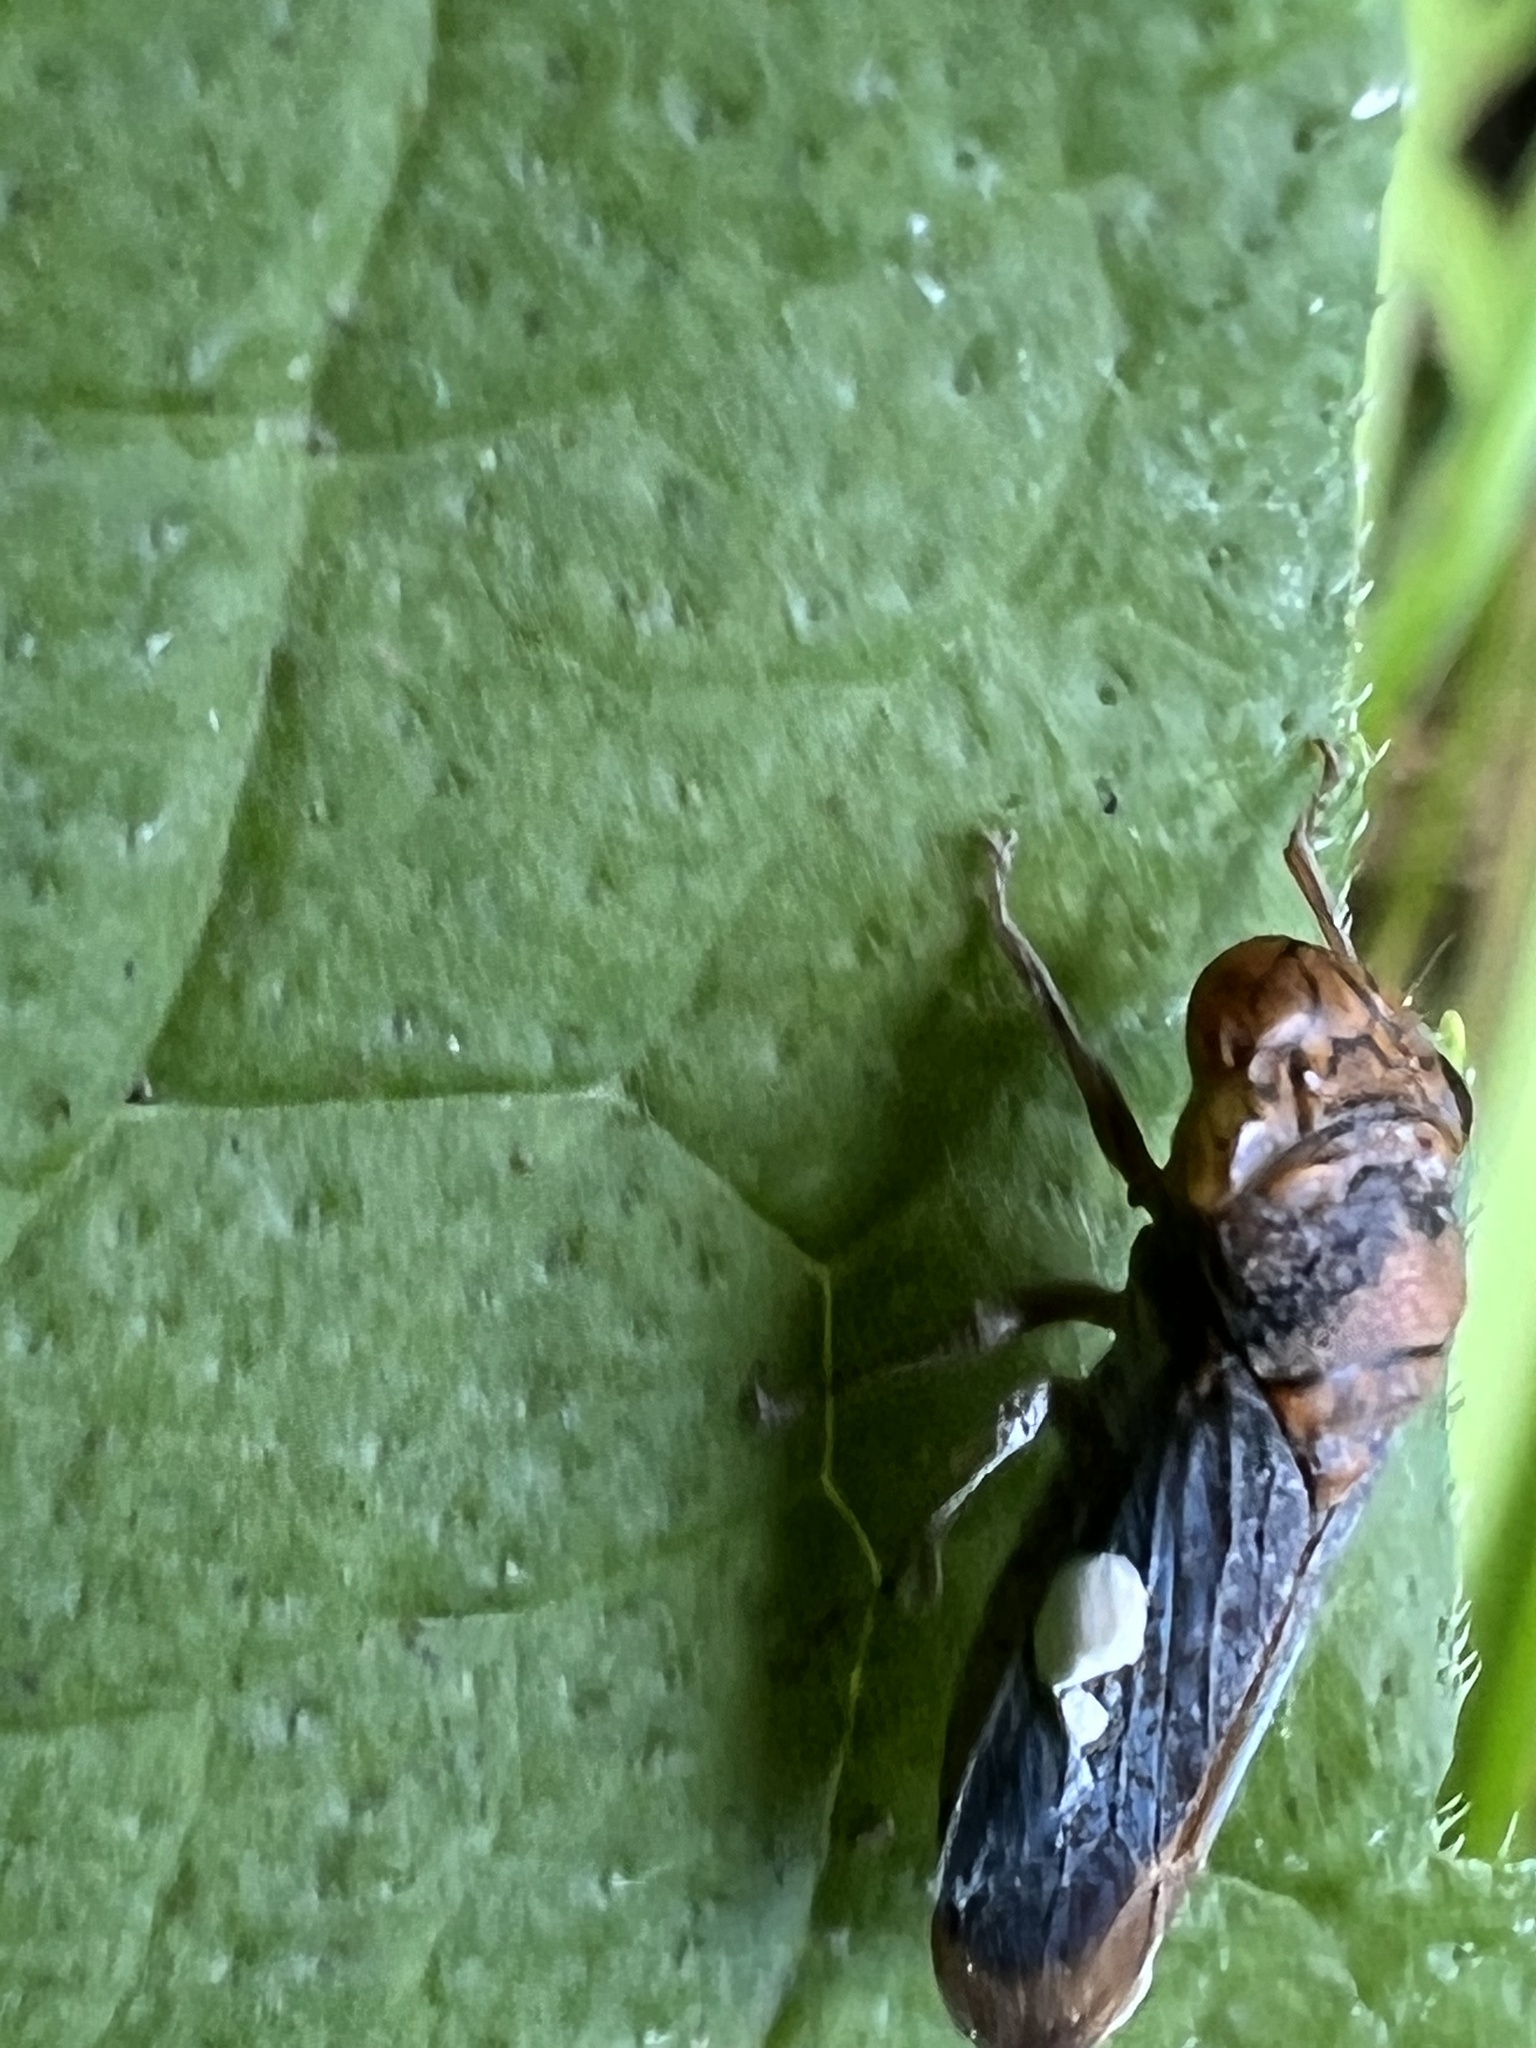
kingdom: Animalia
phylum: Arthropoda
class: Insecta
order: Hemiptera
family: Cicadellidae
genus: Oncometopia
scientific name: Oncometopia orbona
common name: Broad-headed sharpshooter
